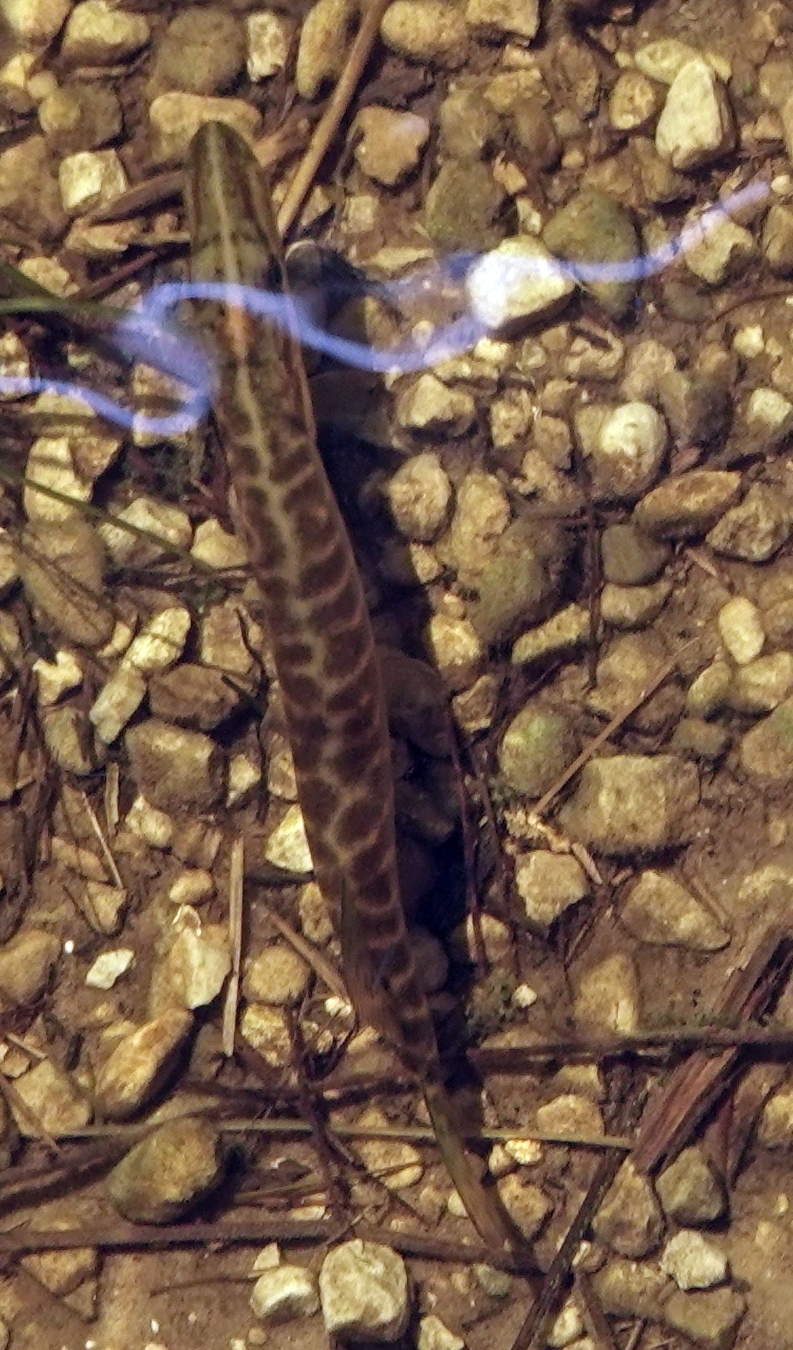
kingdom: Animalia
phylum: Chordata
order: Esociformes
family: Esocidae
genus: Esox
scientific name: Esox americanus
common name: Redfin pickerel
